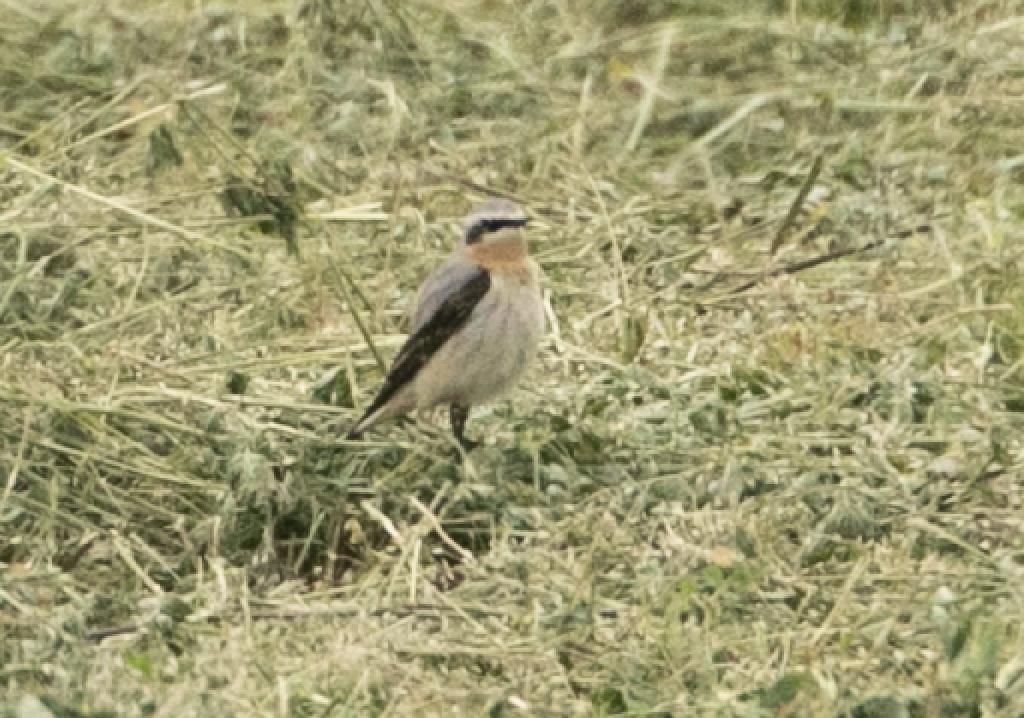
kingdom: Animalia
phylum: Chordata
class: Aves
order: Passeriformes
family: Muscicapidae
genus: Oenanthe
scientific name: Oenanthe oenanthe
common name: Northern wheatear
